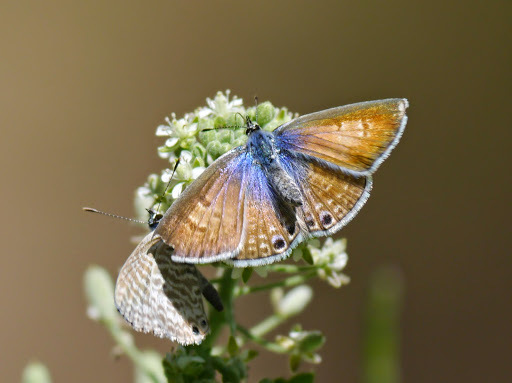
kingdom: Animalia
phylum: Arthropoda
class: Insecta
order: Lepidoptera
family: Lycaenidae
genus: Leptotes
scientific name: Leptotes marina
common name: Marine blue
